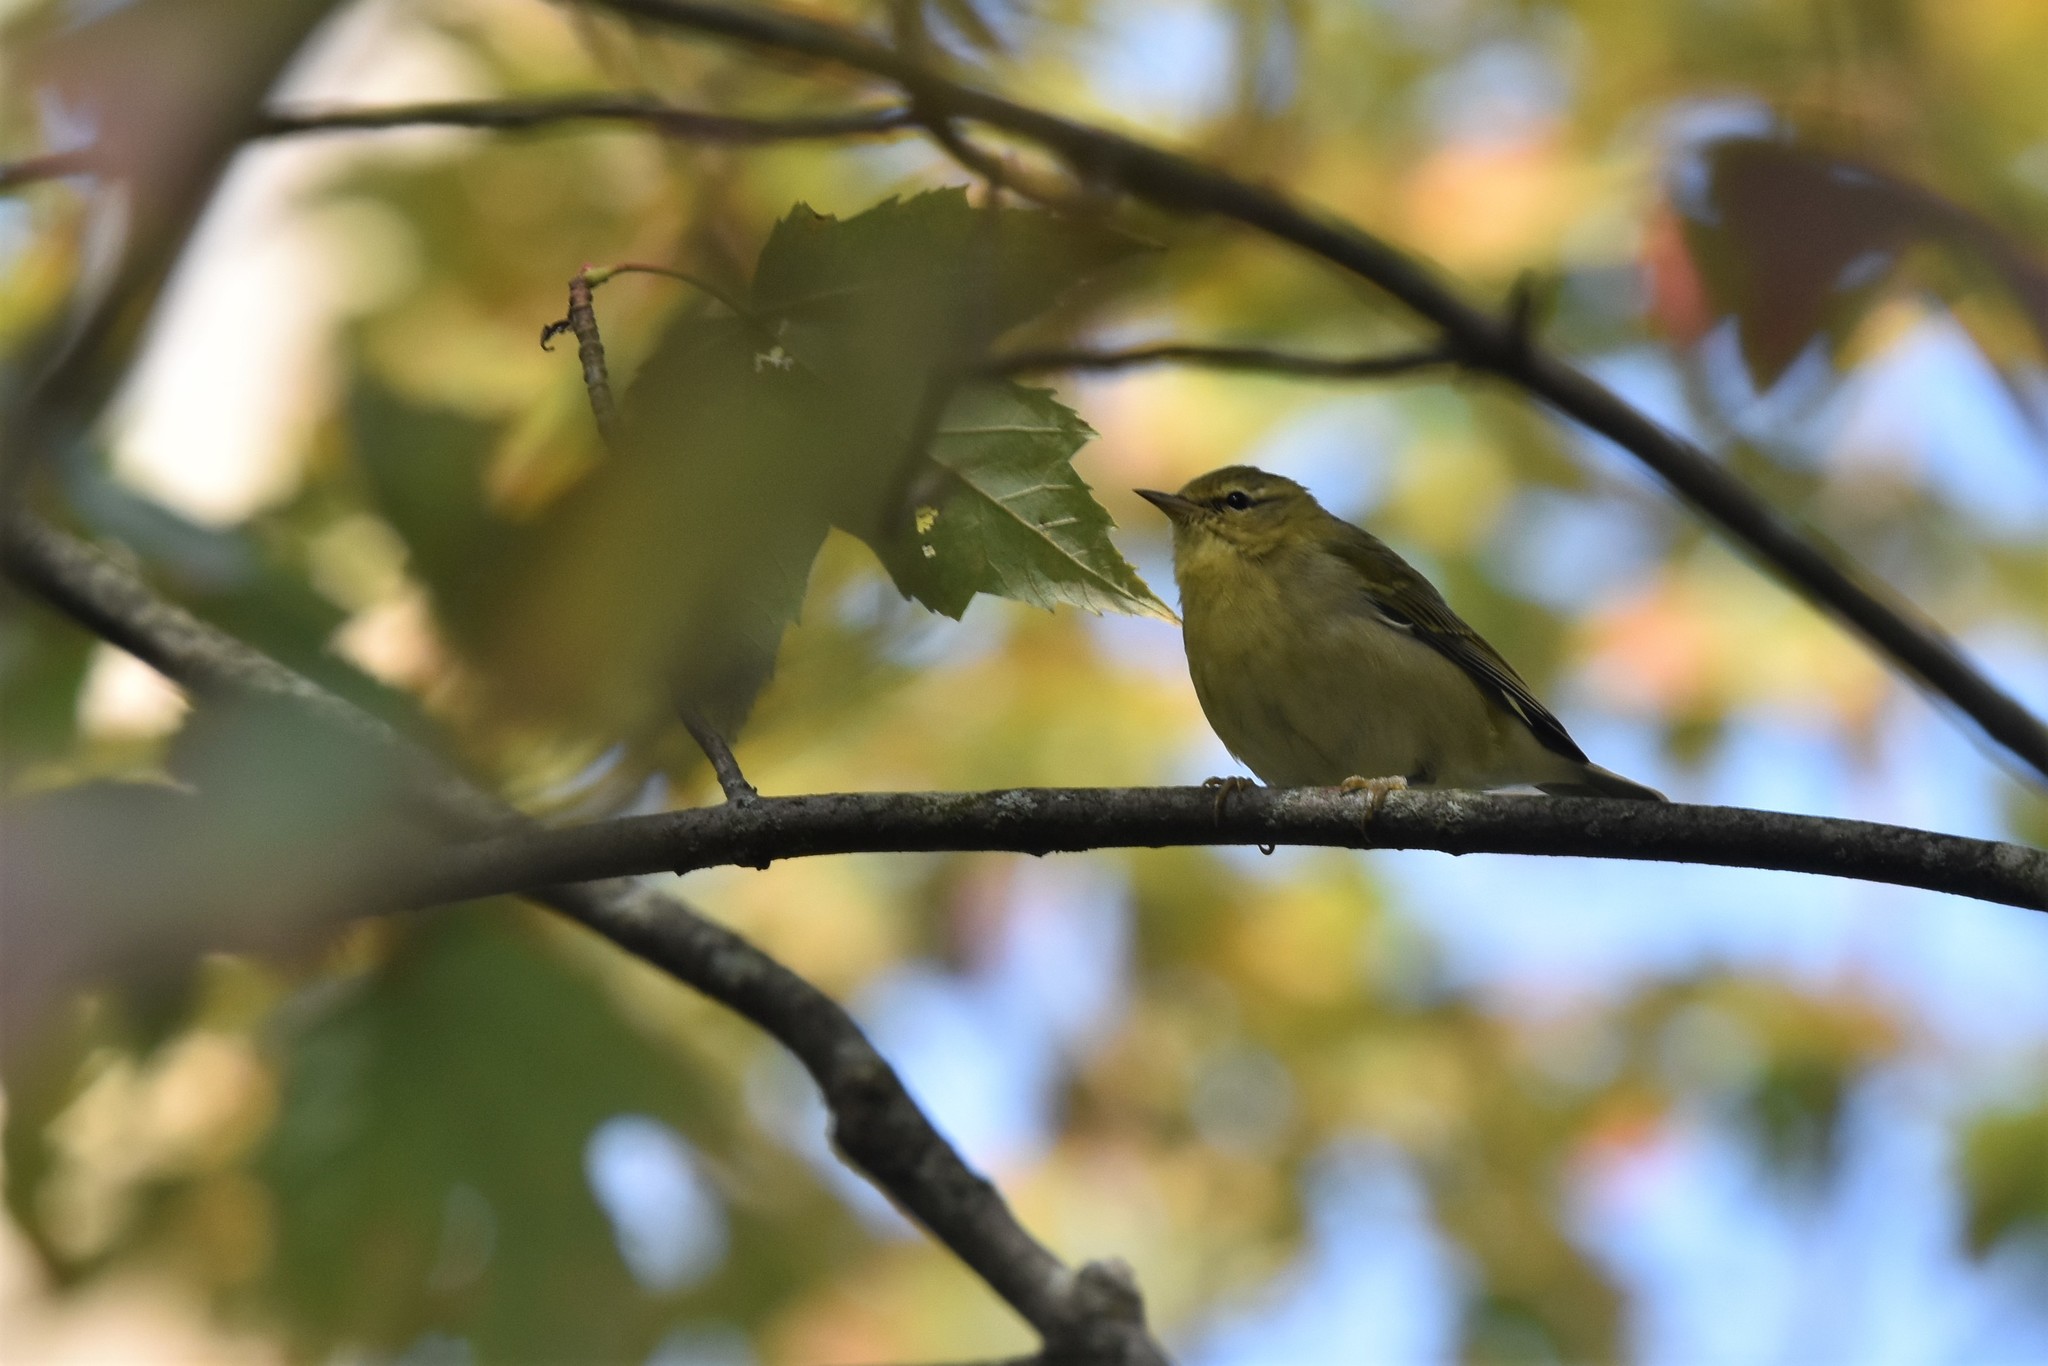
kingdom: Animalia
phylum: Chordata
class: Aves
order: Passeriformes
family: Parulidae
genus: Leiothlypis
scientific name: Leiothlypis peregrina
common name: Tennessee warbler
